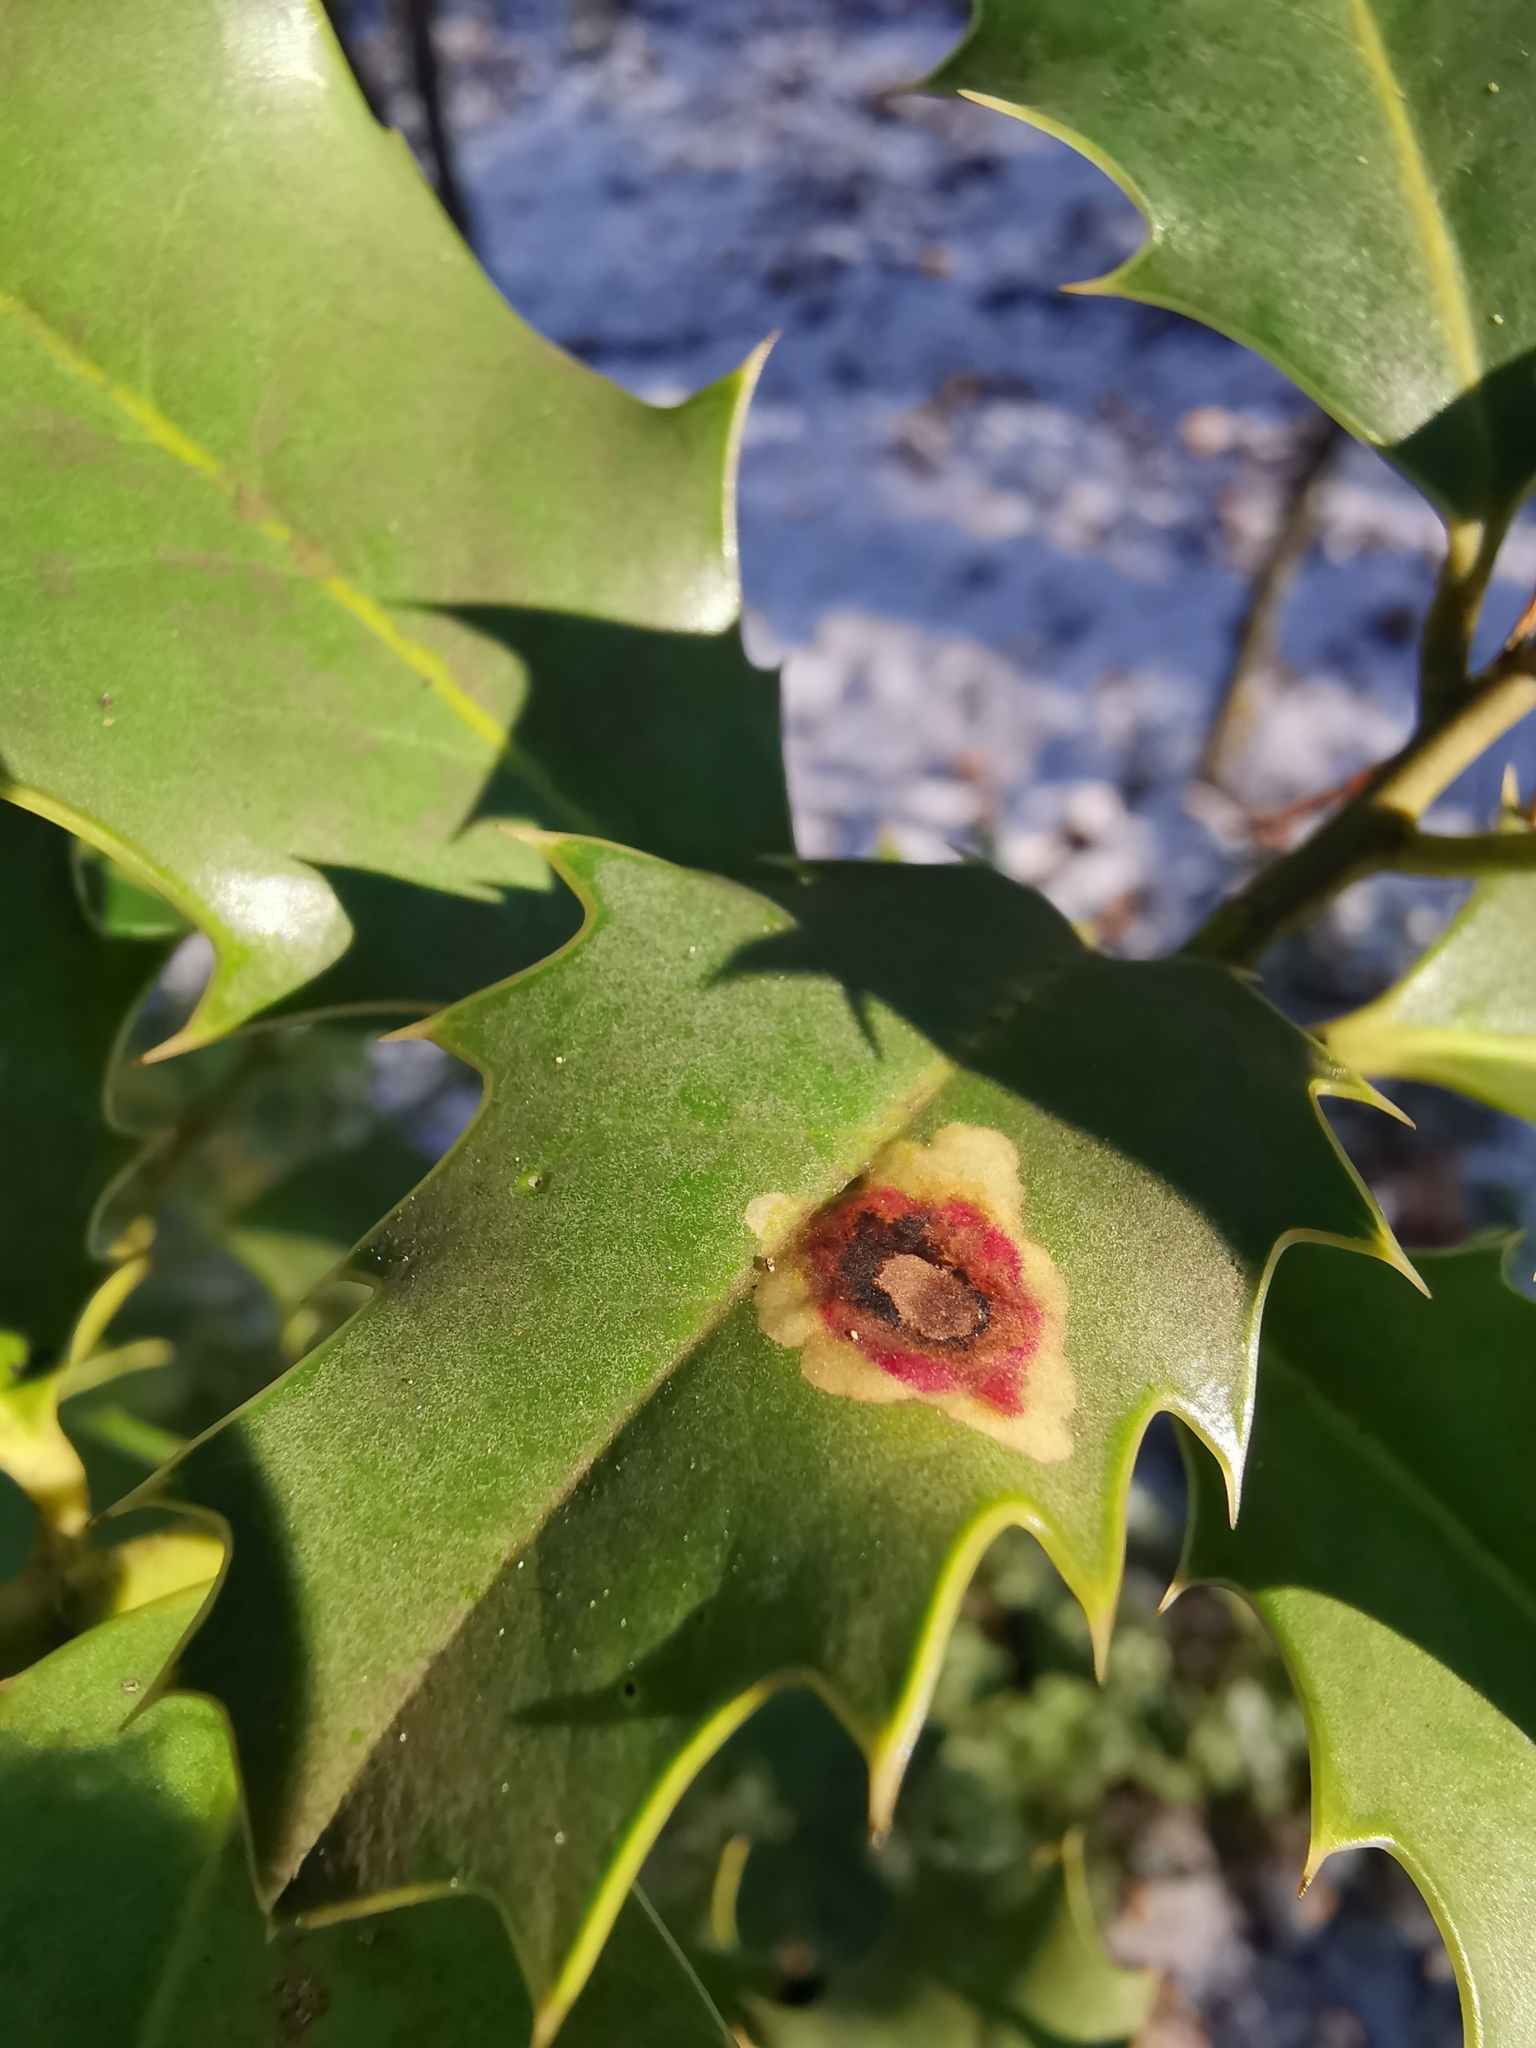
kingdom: Animalia
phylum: Arthropoda
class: Insecta
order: Diptera
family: Agromyzidae
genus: Phytomyza
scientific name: Phytomyza ilicis
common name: Holly leafminer
